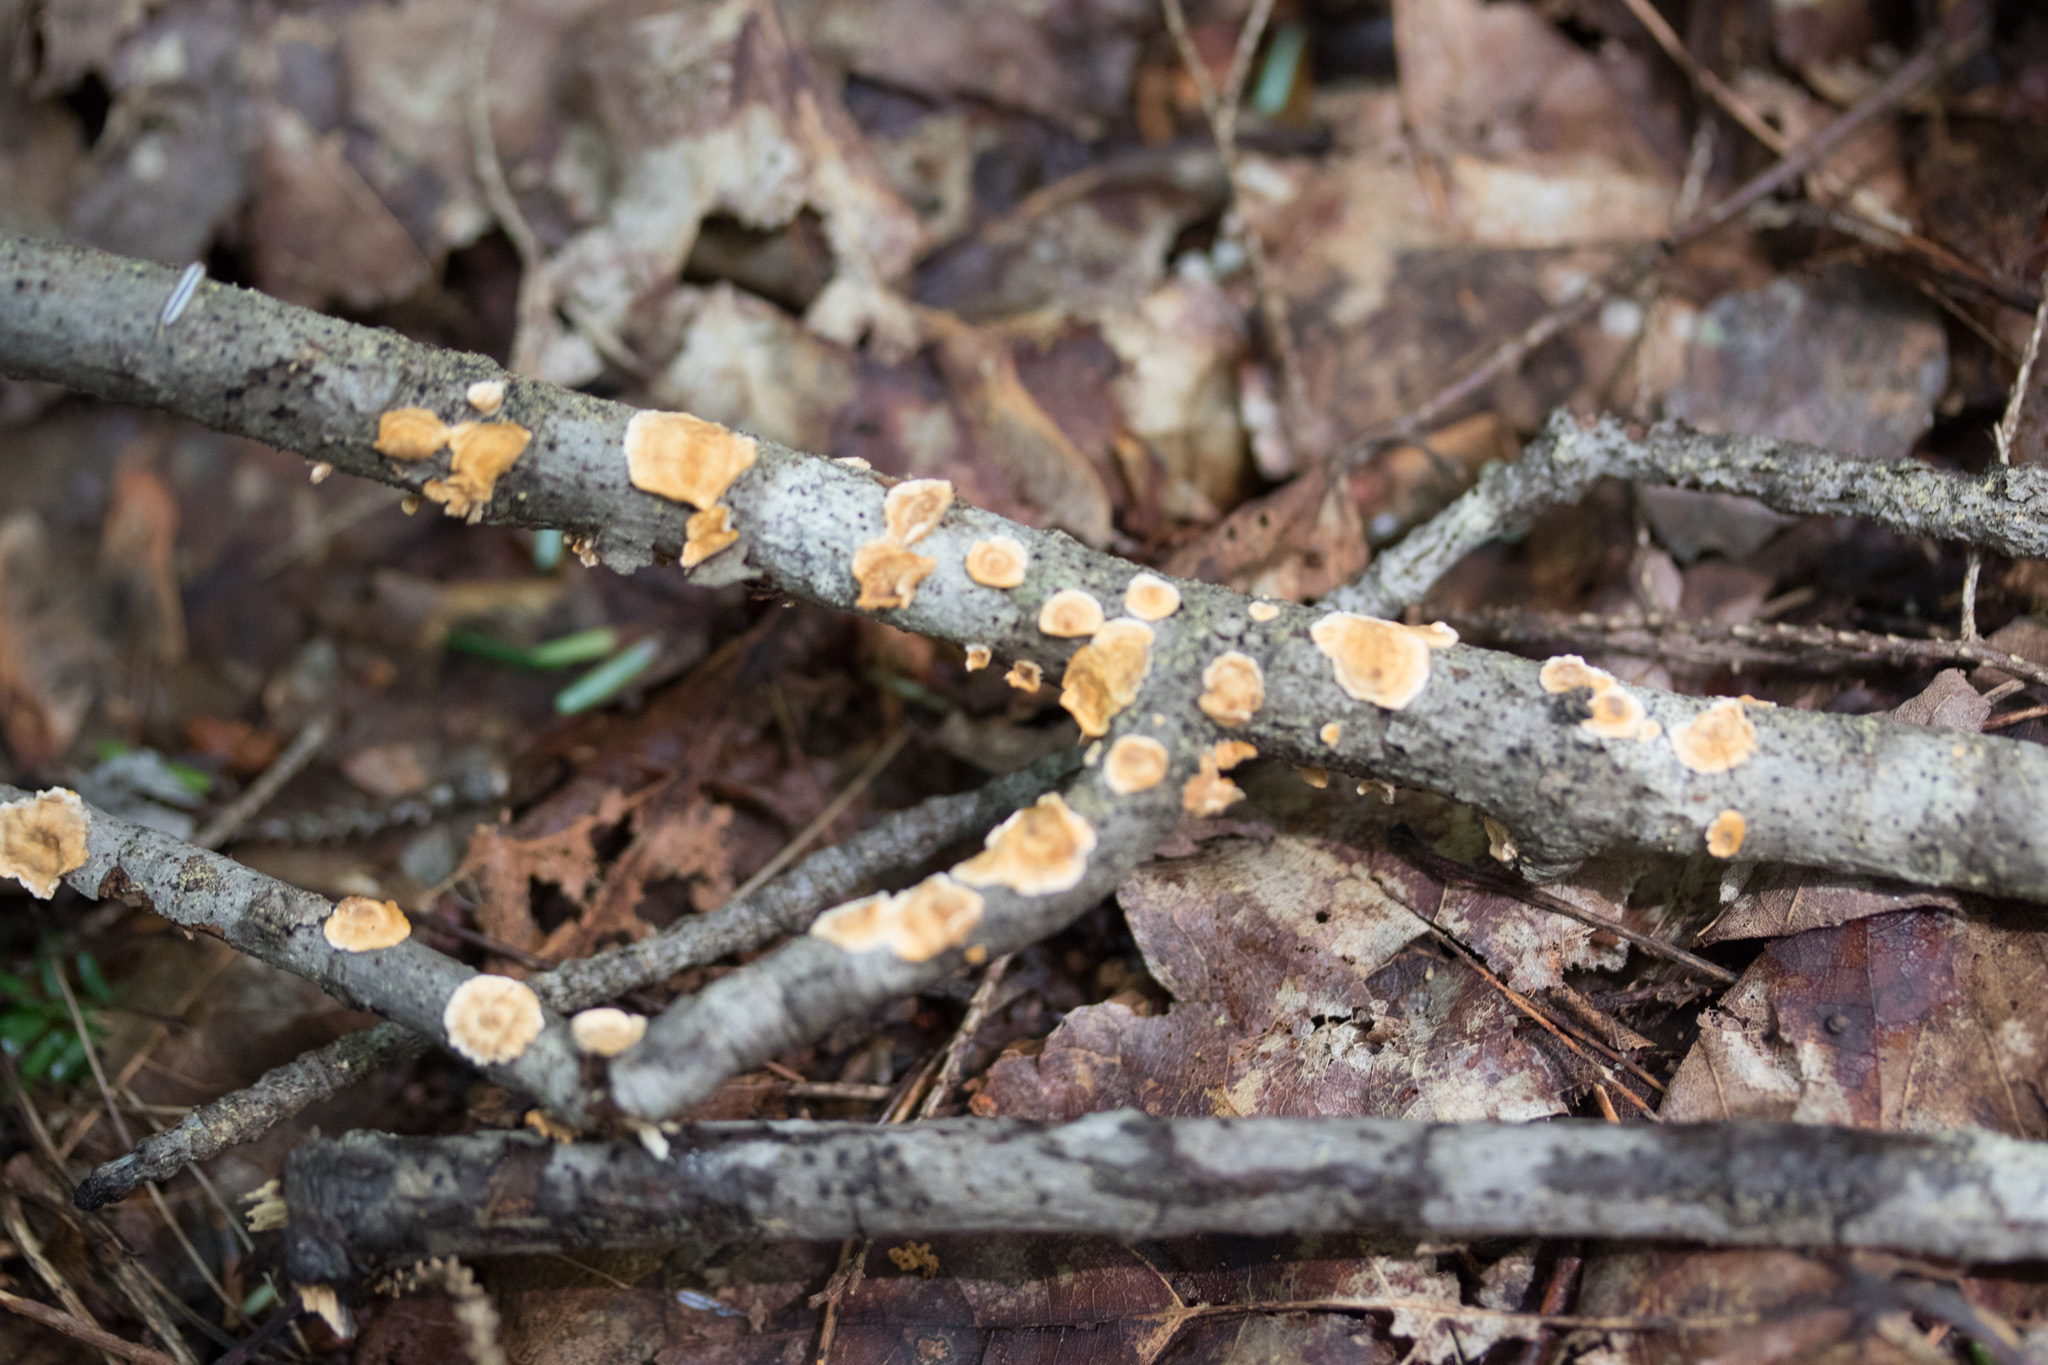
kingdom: Fungi
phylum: Basidiomycota
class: Agaricomycetes
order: Russulales
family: Stereaceae
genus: Stereum
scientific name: Stereum complicatum
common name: Crowded parchment
